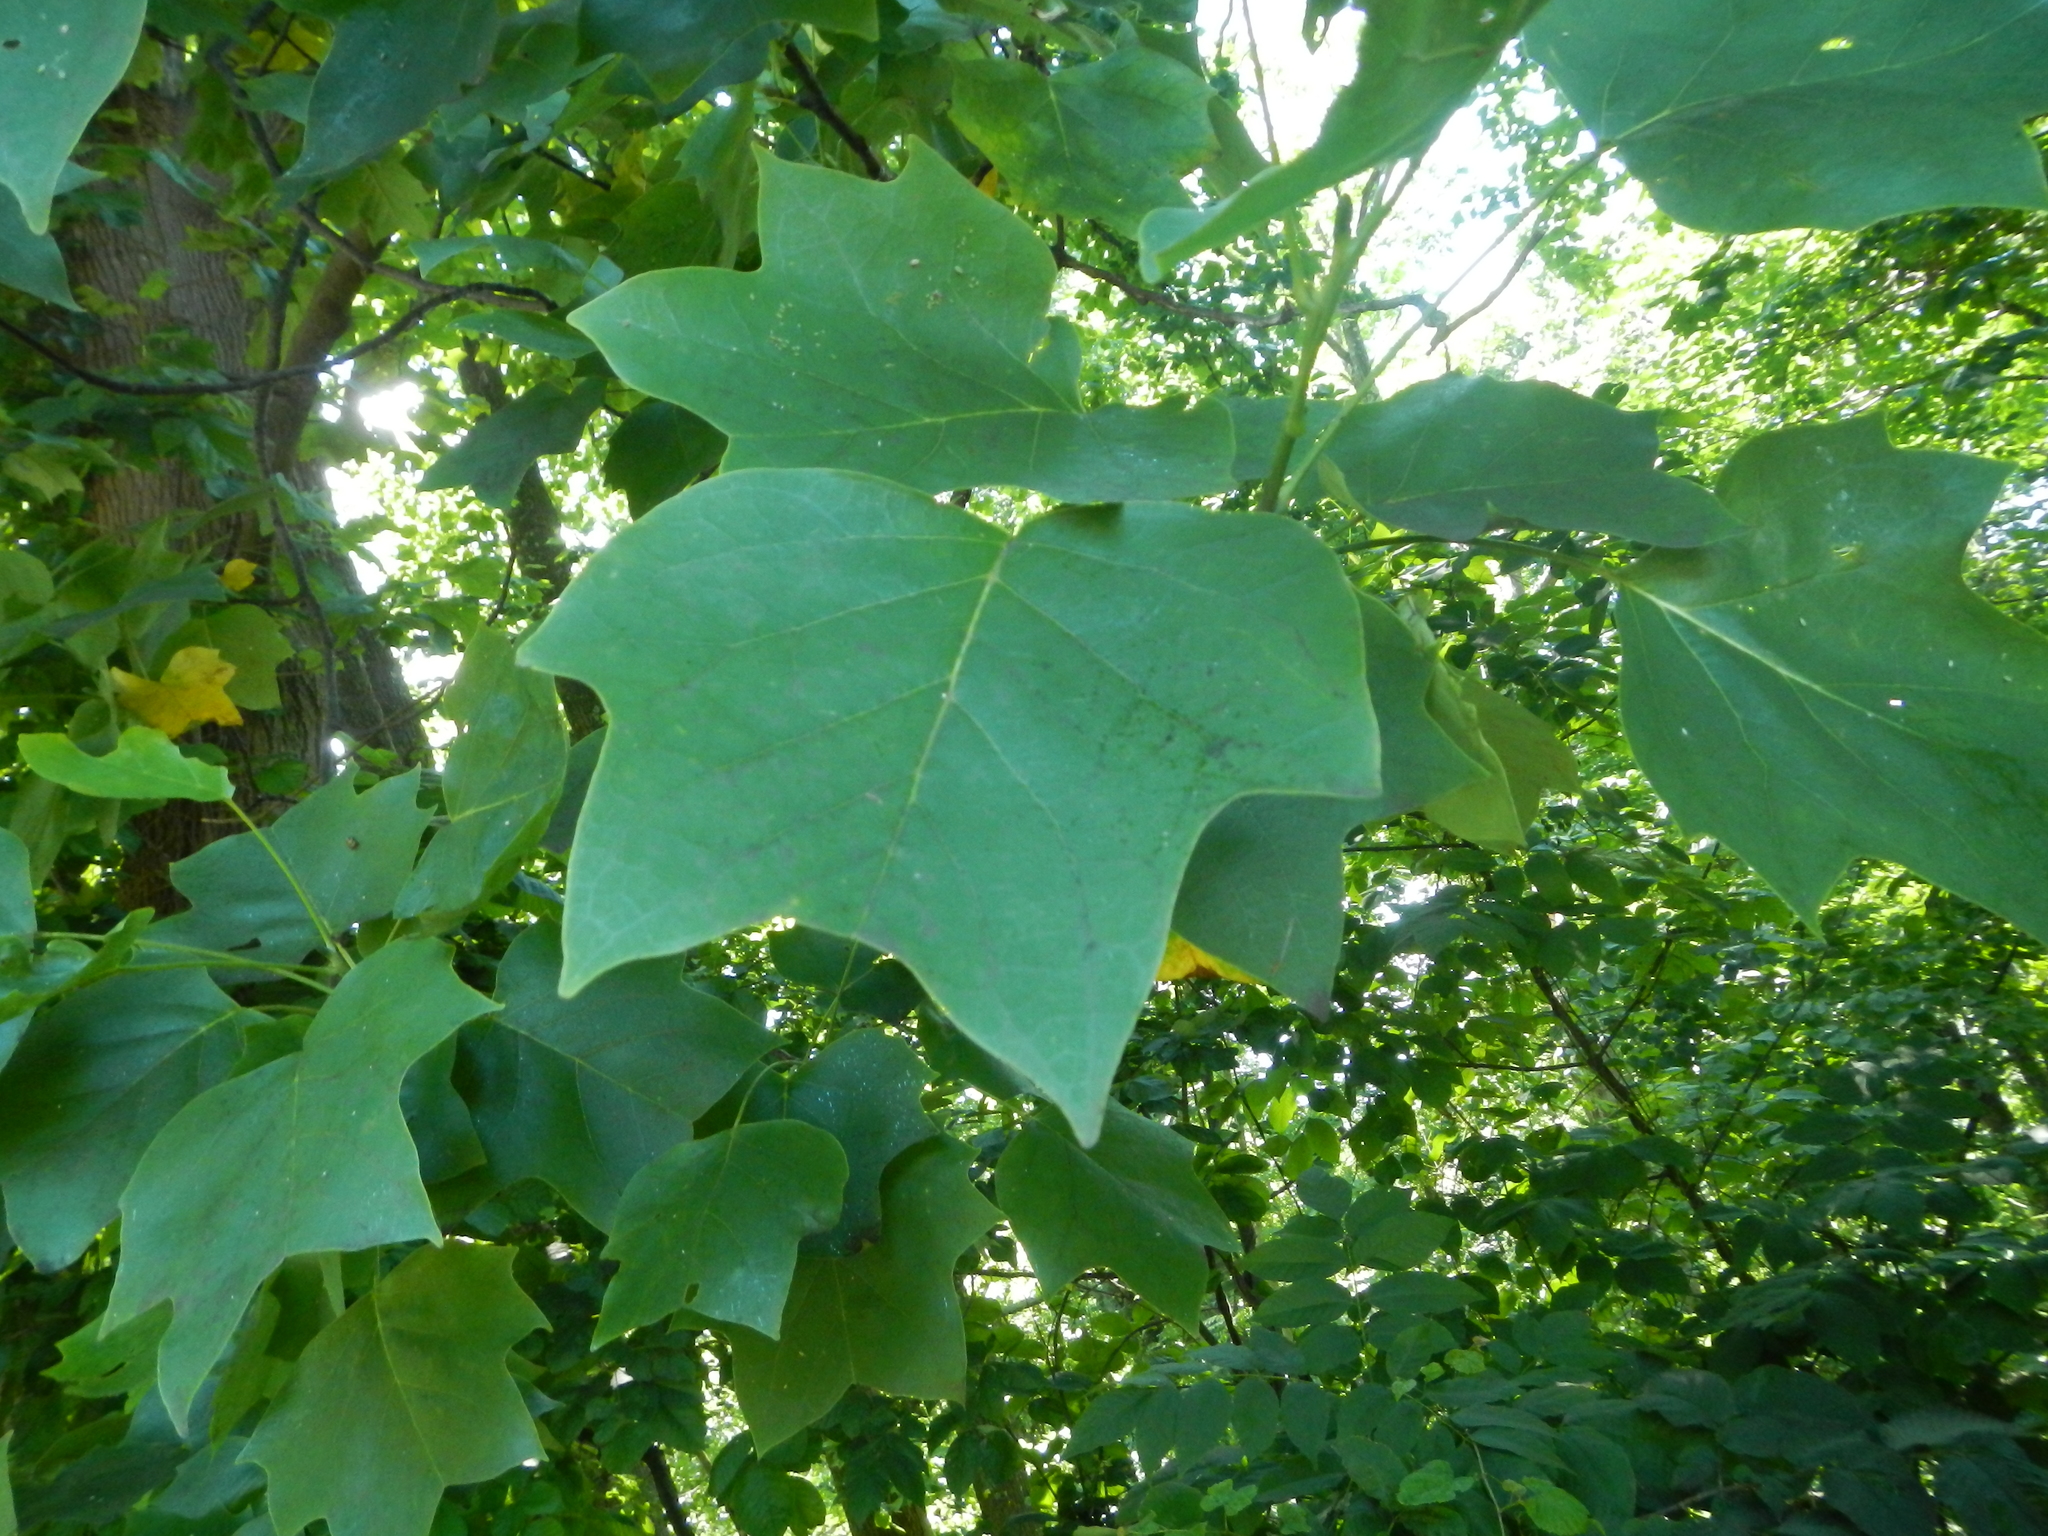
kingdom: Plantae
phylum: Tracheophyta
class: Magnoliopsida
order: Magnoliales
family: Magnoliaceae
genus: Liriodendron
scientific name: Liriodendron tulipifera
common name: Tulip tree
